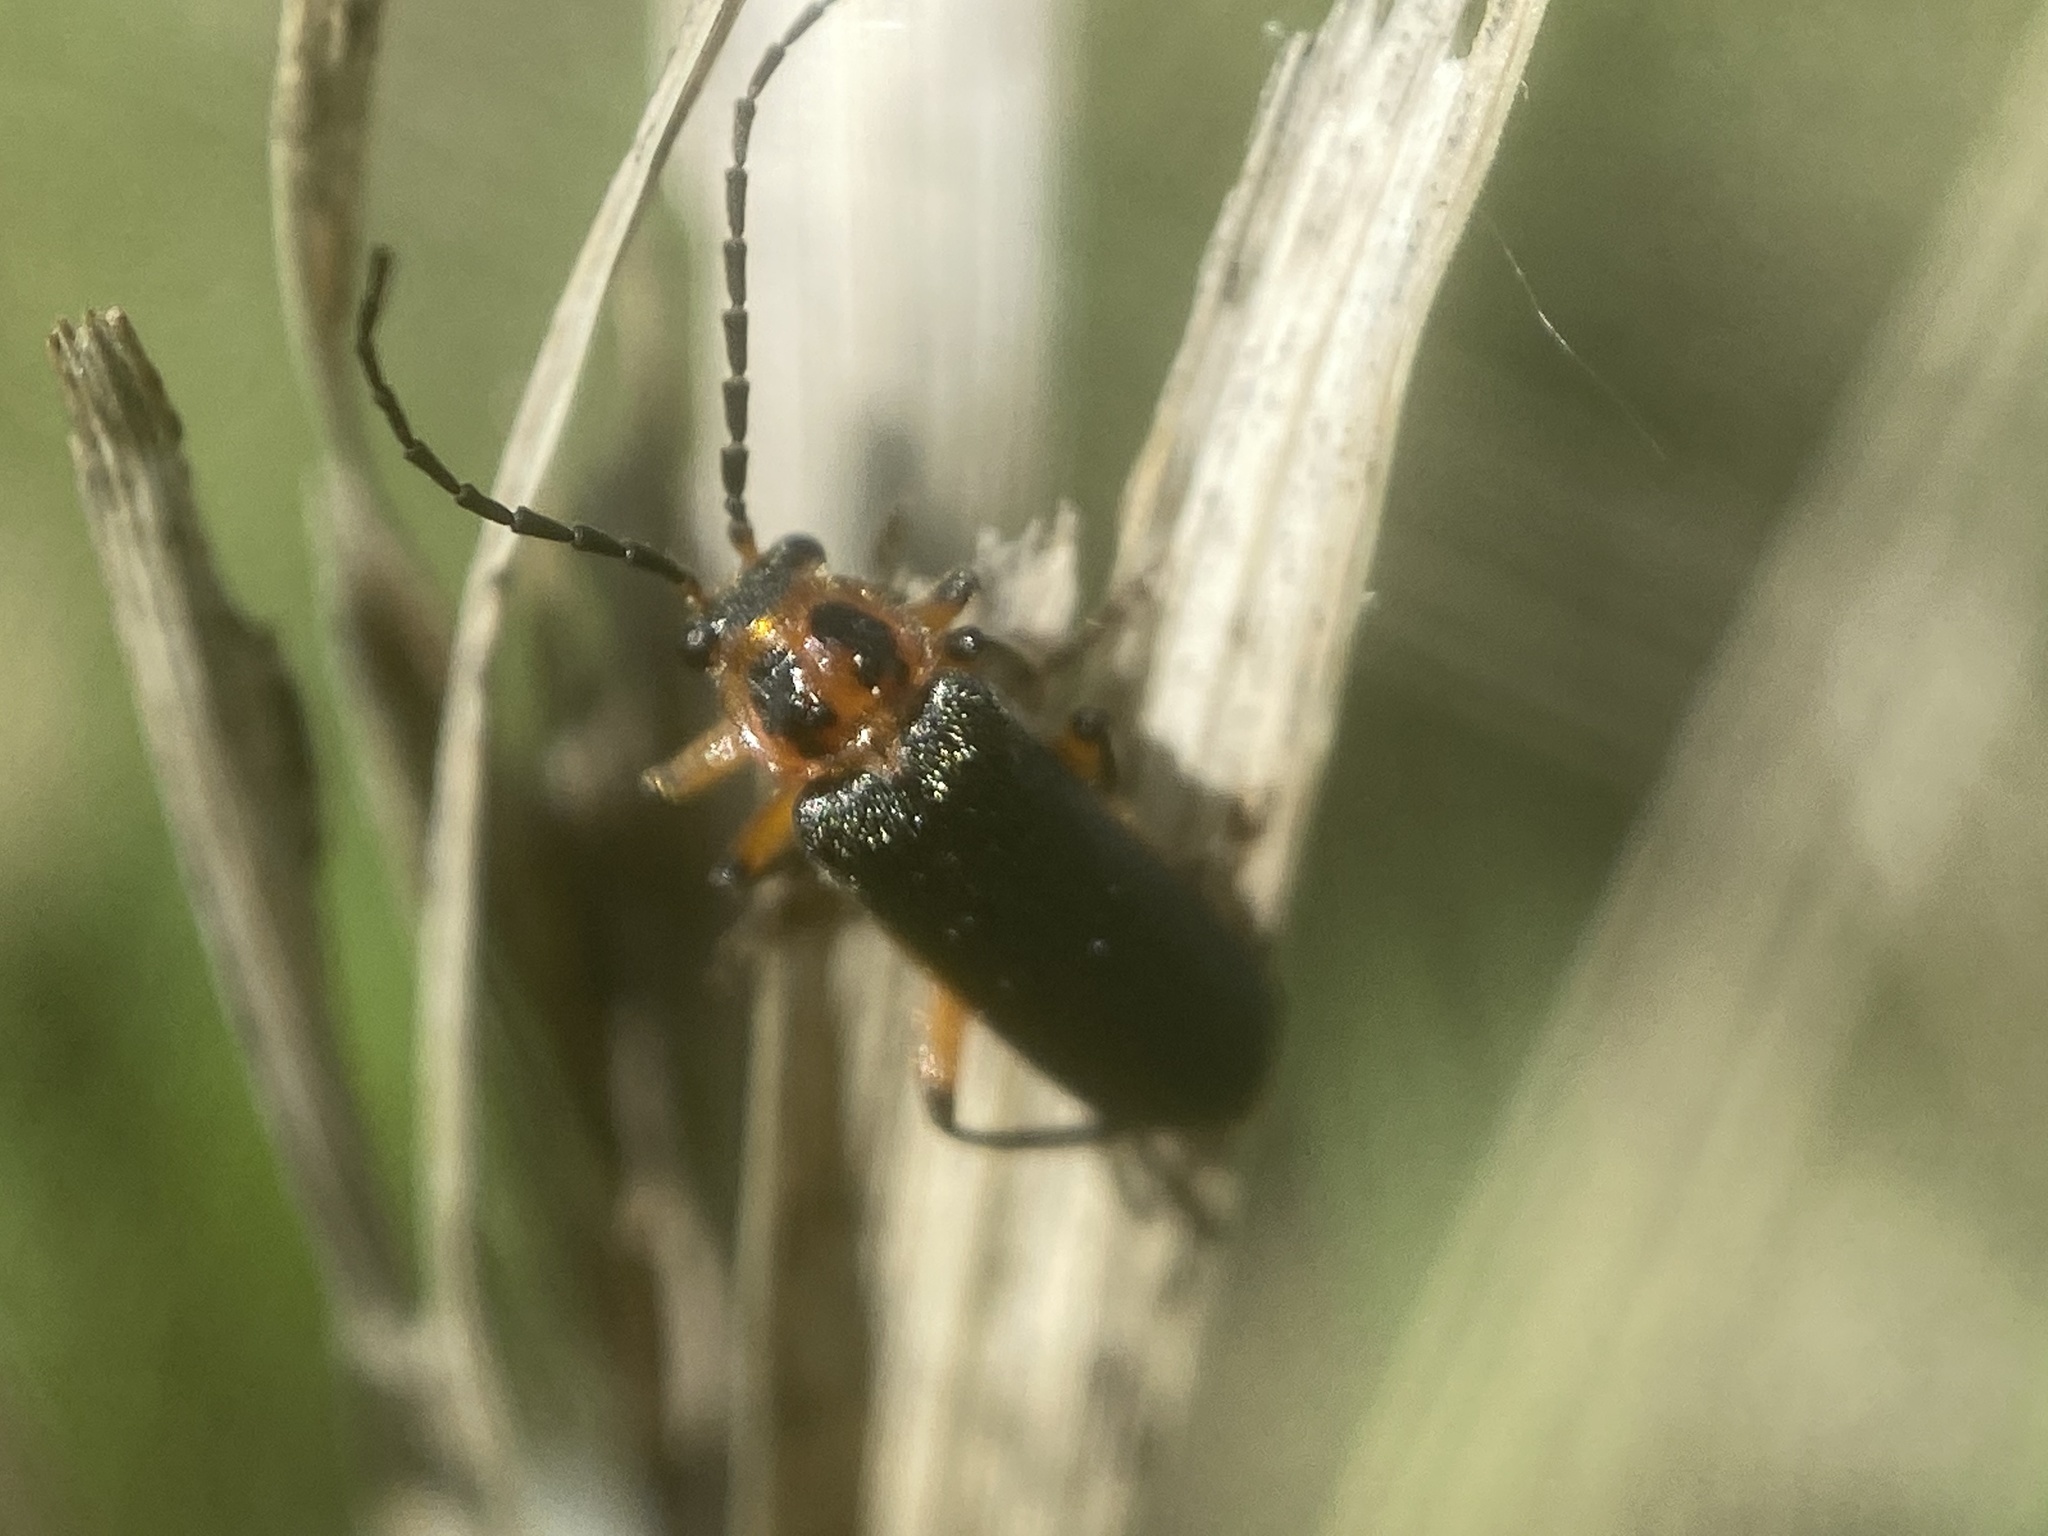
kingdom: Animalia
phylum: Arthropoda
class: Insecta
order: Coleoptera
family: Cantharidae
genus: Atalantycha
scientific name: Atalantycha bilineata
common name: Two-lined leatherwing
